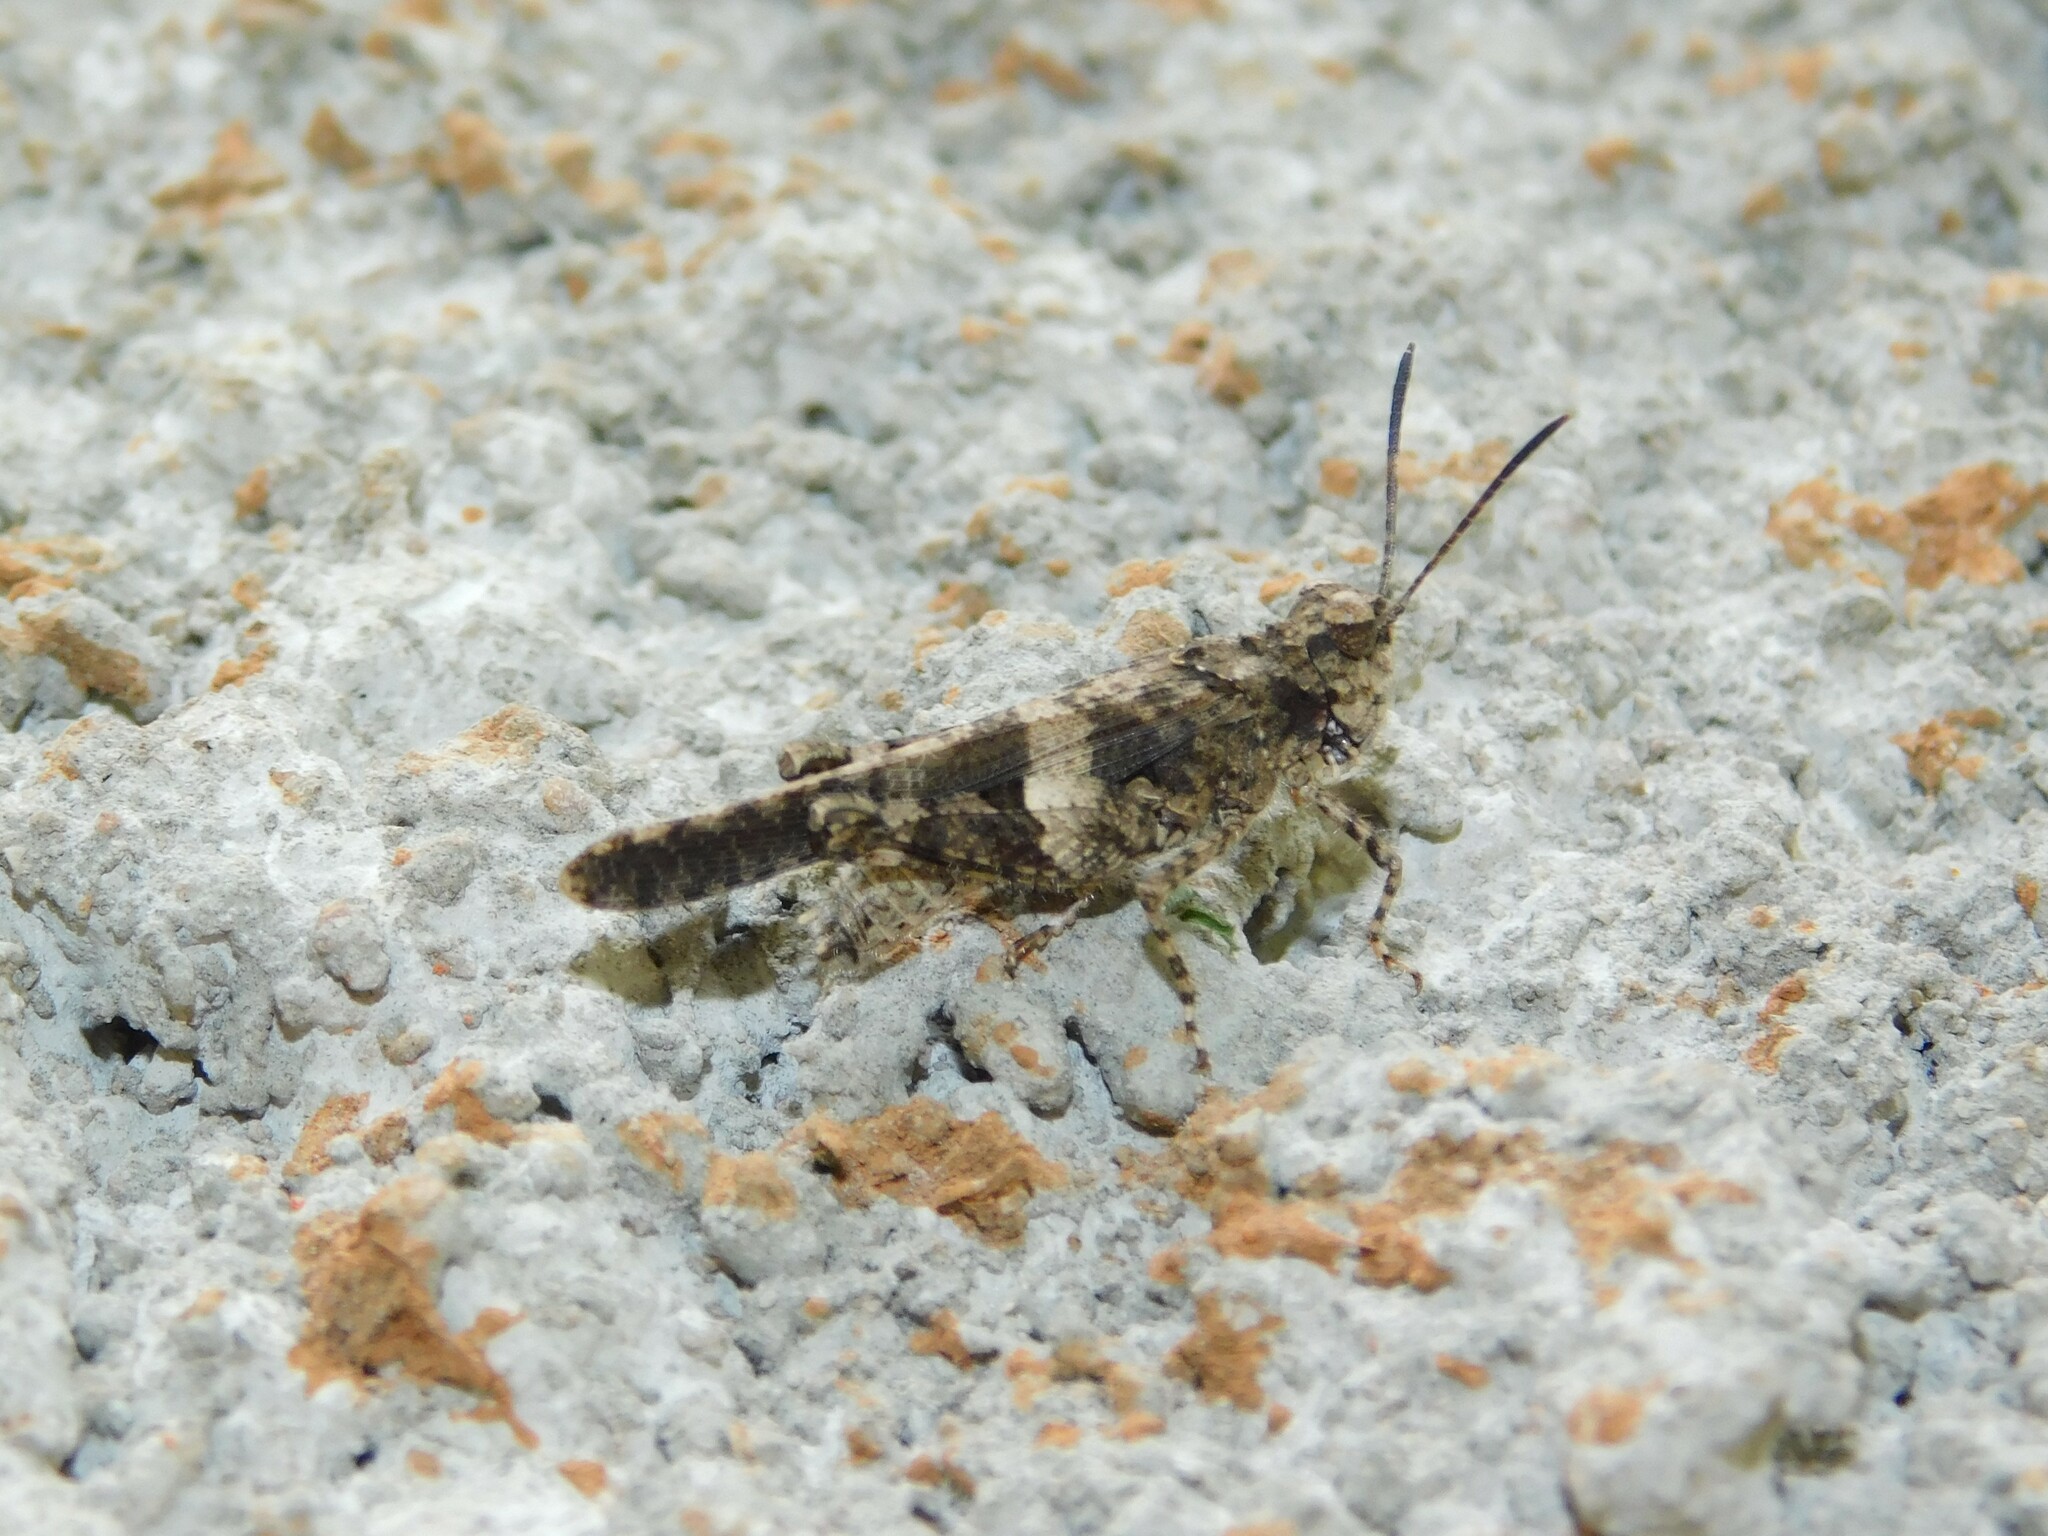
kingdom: Animalia
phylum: Arthropoda
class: Insecta
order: Orthoptera
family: Acrididae
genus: Trilophidia
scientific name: Trilophidia conturbata
